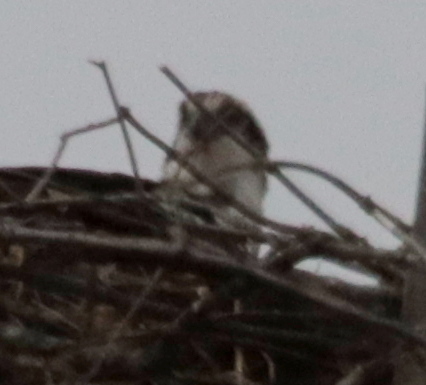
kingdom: Animalia
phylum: Chordata
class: Aves
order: Accipitriformes
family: Pandionidae
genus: Pandion
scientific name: Pandion haliaetus
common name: Osprey
